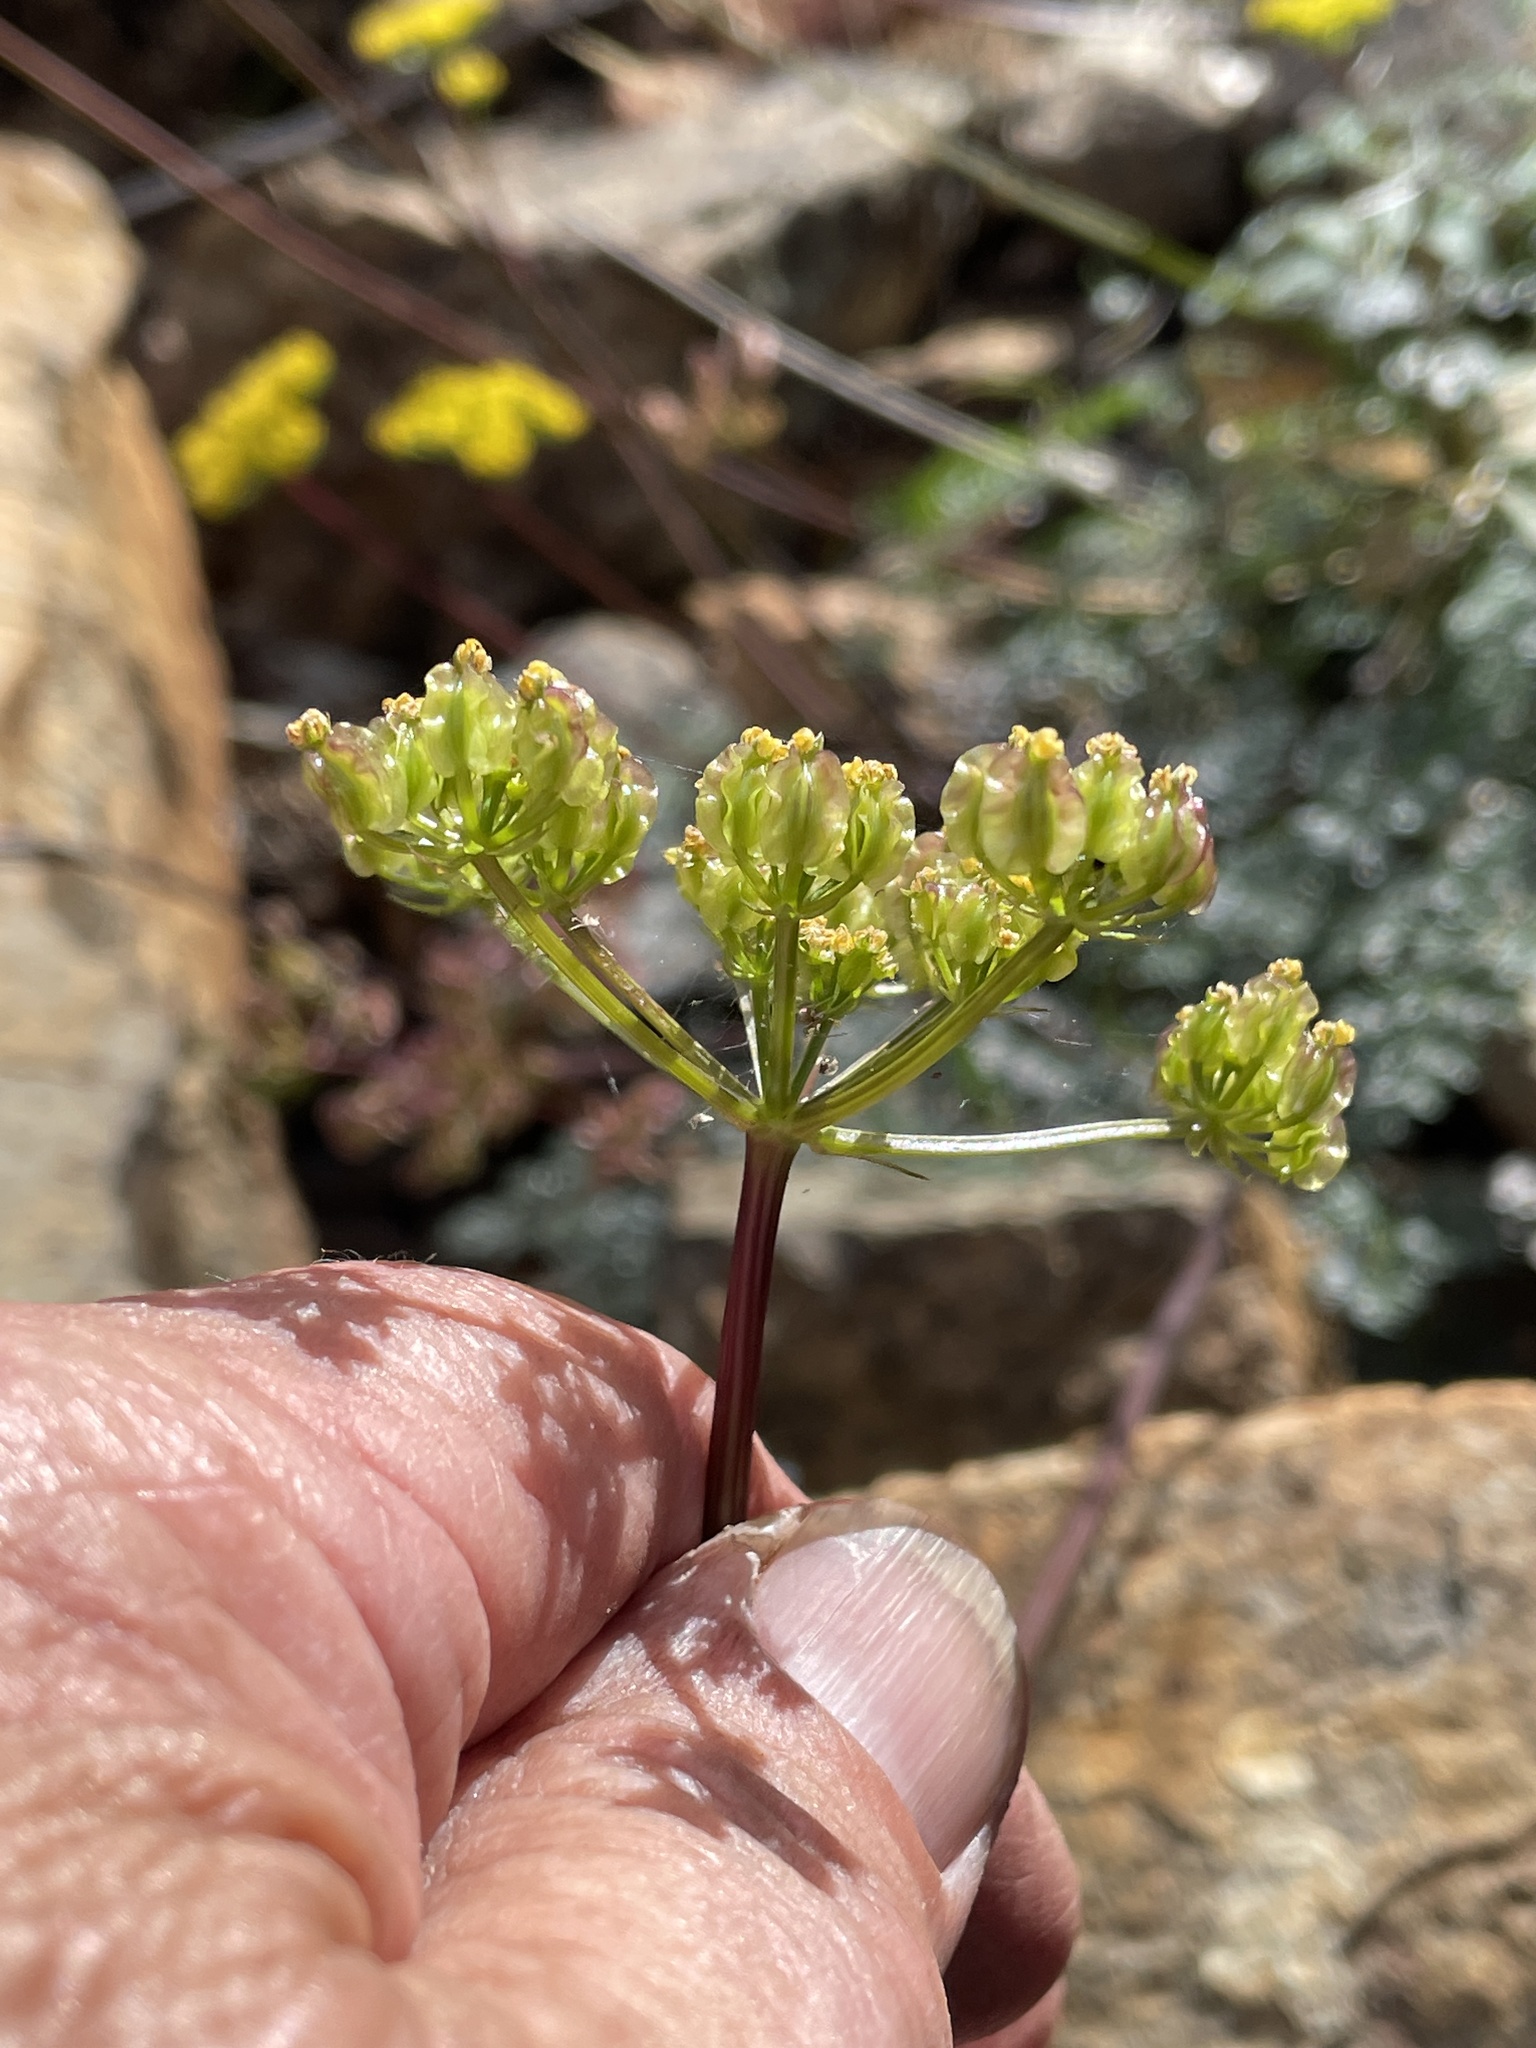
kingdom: Plantae
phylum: Tracheophyta
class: Magnoliopsida
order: Apiales
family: Apiaceae
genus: Pteryxia
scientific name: Pteryxia terebinthina
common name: Turpentine wavewing
